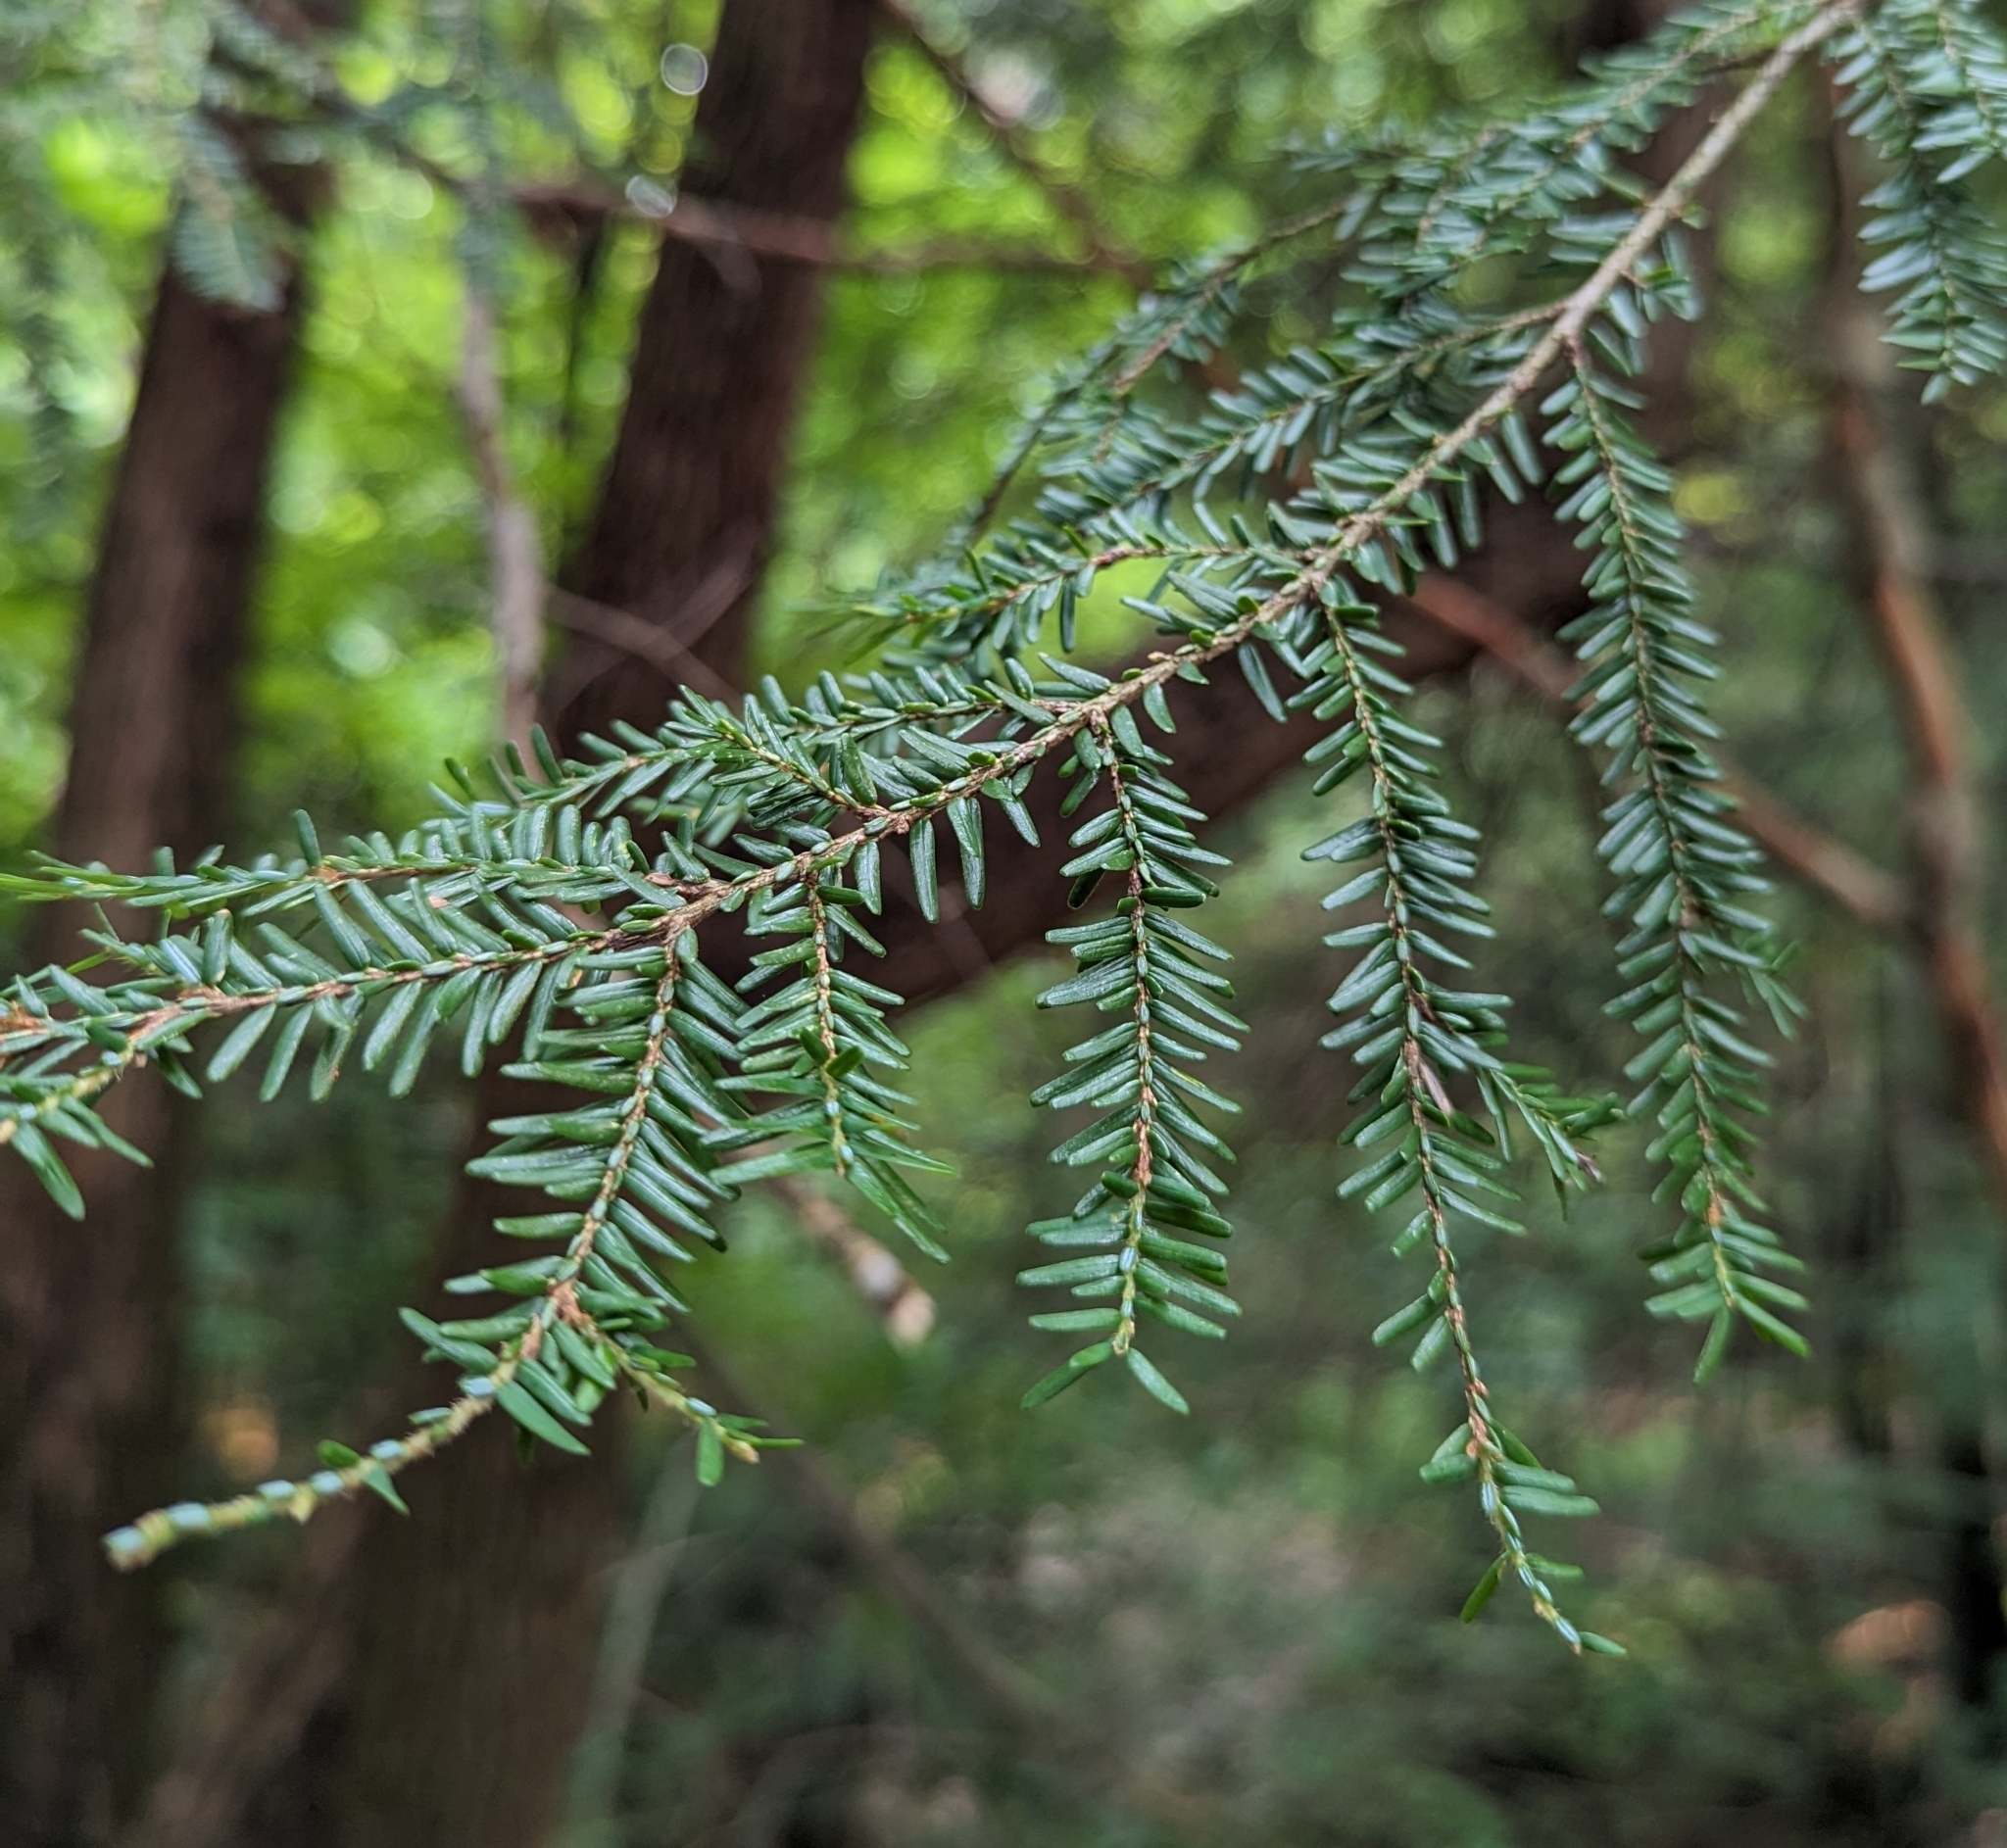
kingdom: Plantae
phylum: Tracheophyta
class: Pinopsida
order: Pinales
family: Pinaceae
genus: Tsuga
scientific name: Tsuga canadensis
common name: Eastern hemlock
